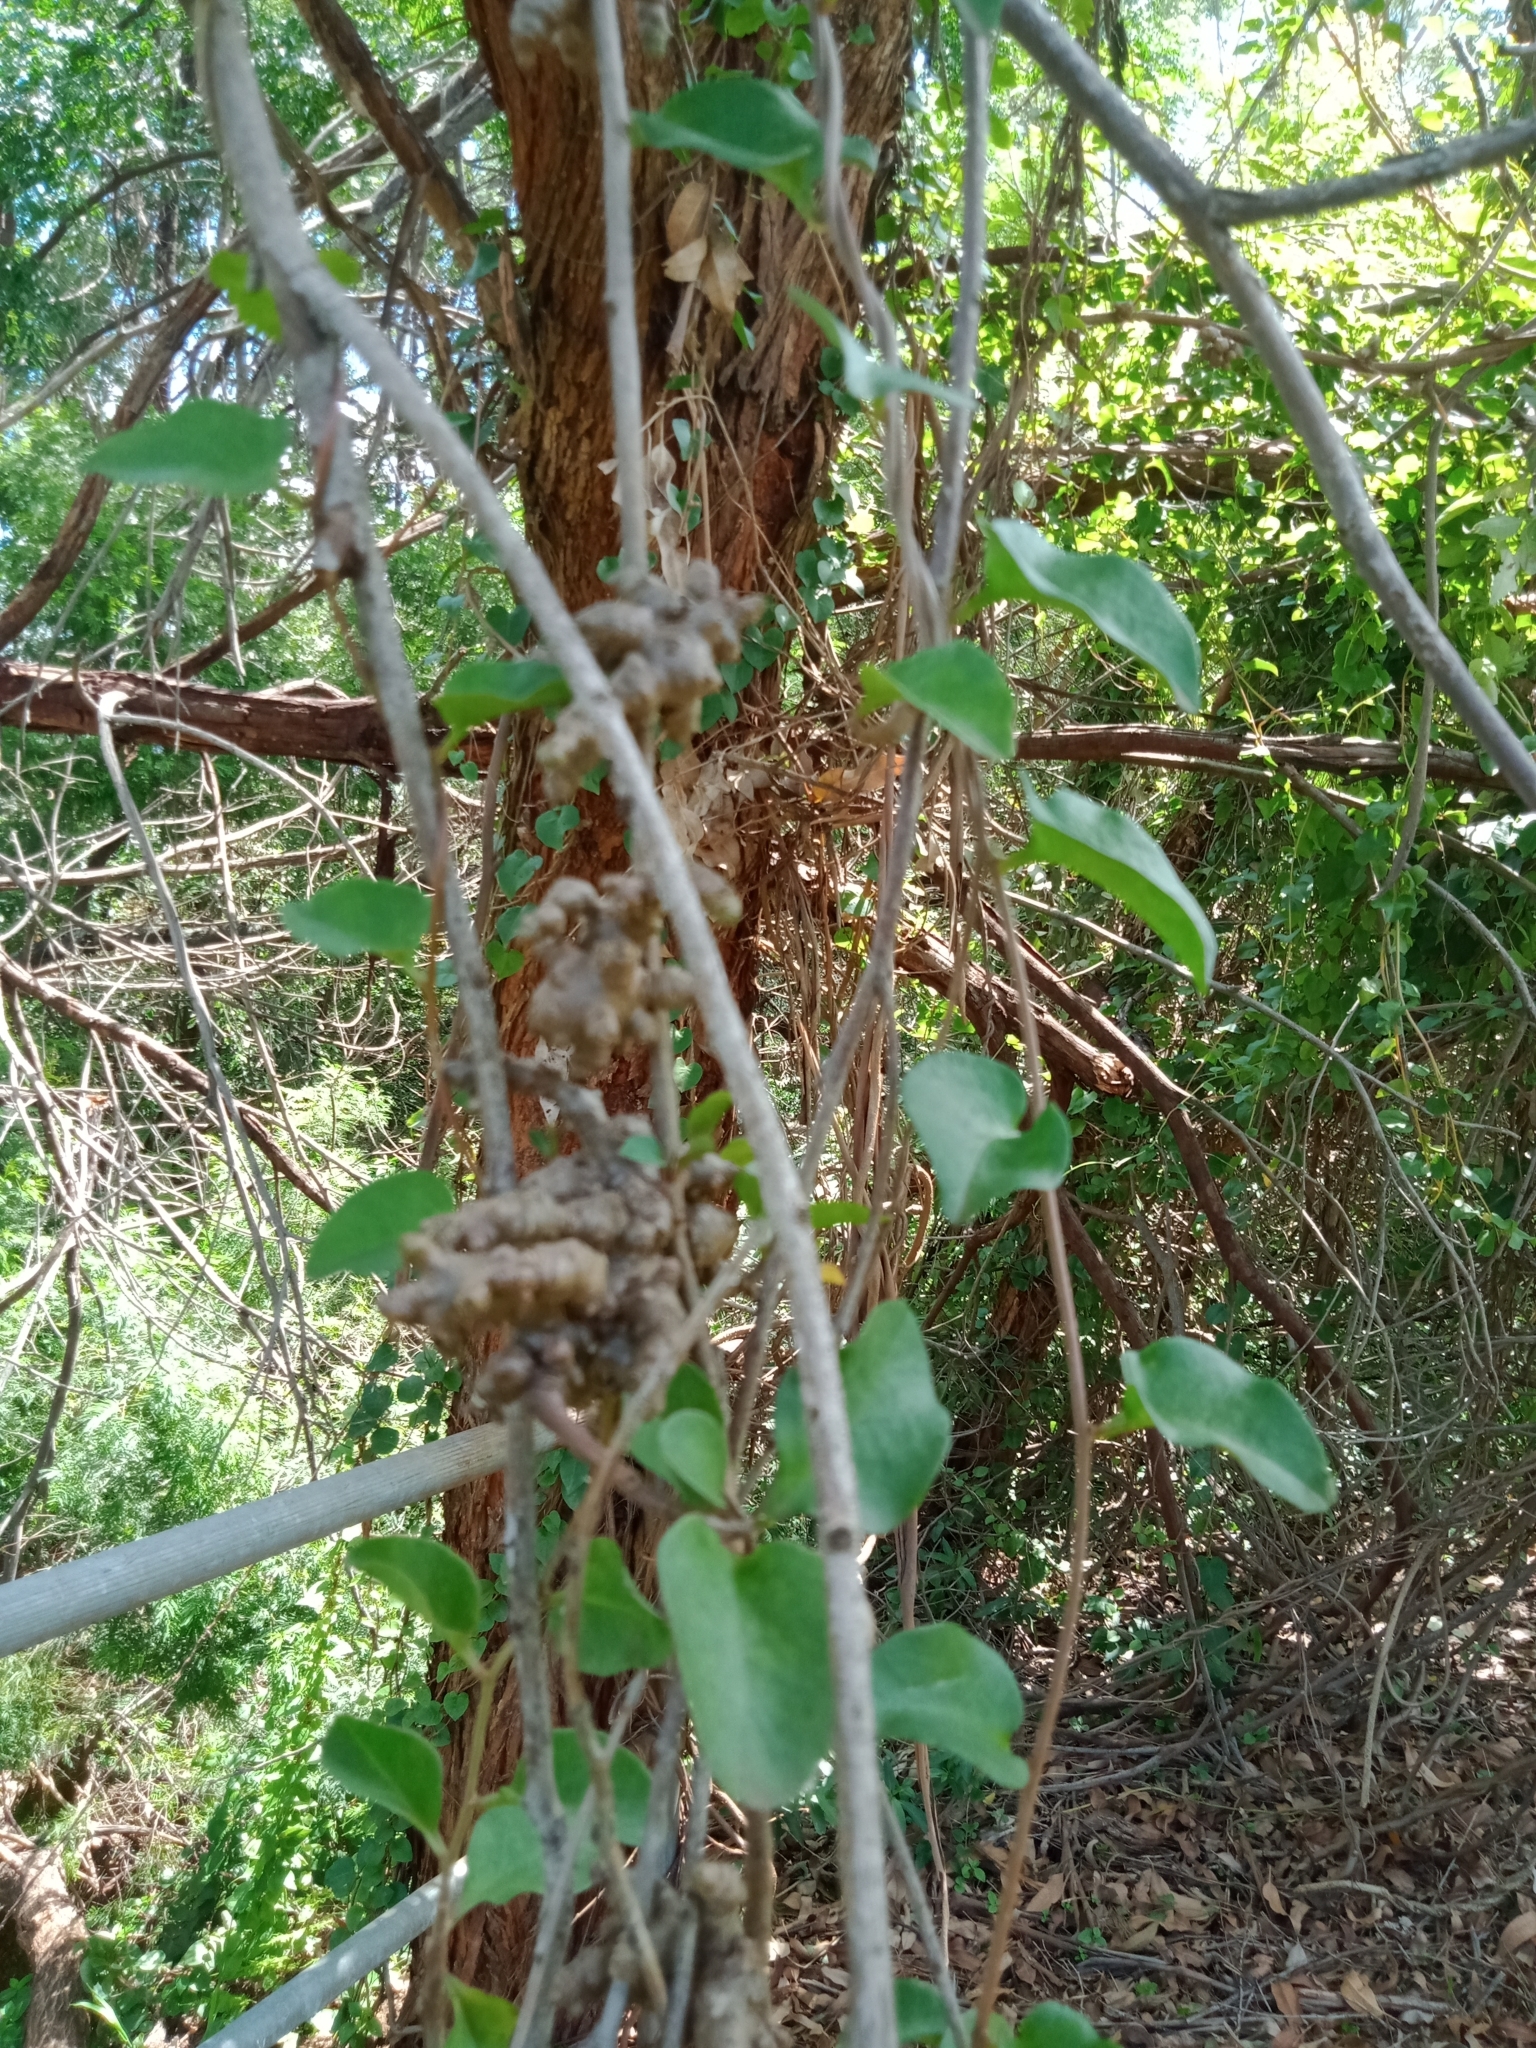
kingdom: Plantae
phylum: Tracheophyta
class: Magnoliopsida
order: Caryophyllales
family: Basellaceae
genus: Anredera
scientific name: Anredera cordifolia
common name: Heartleaf madeiravine
